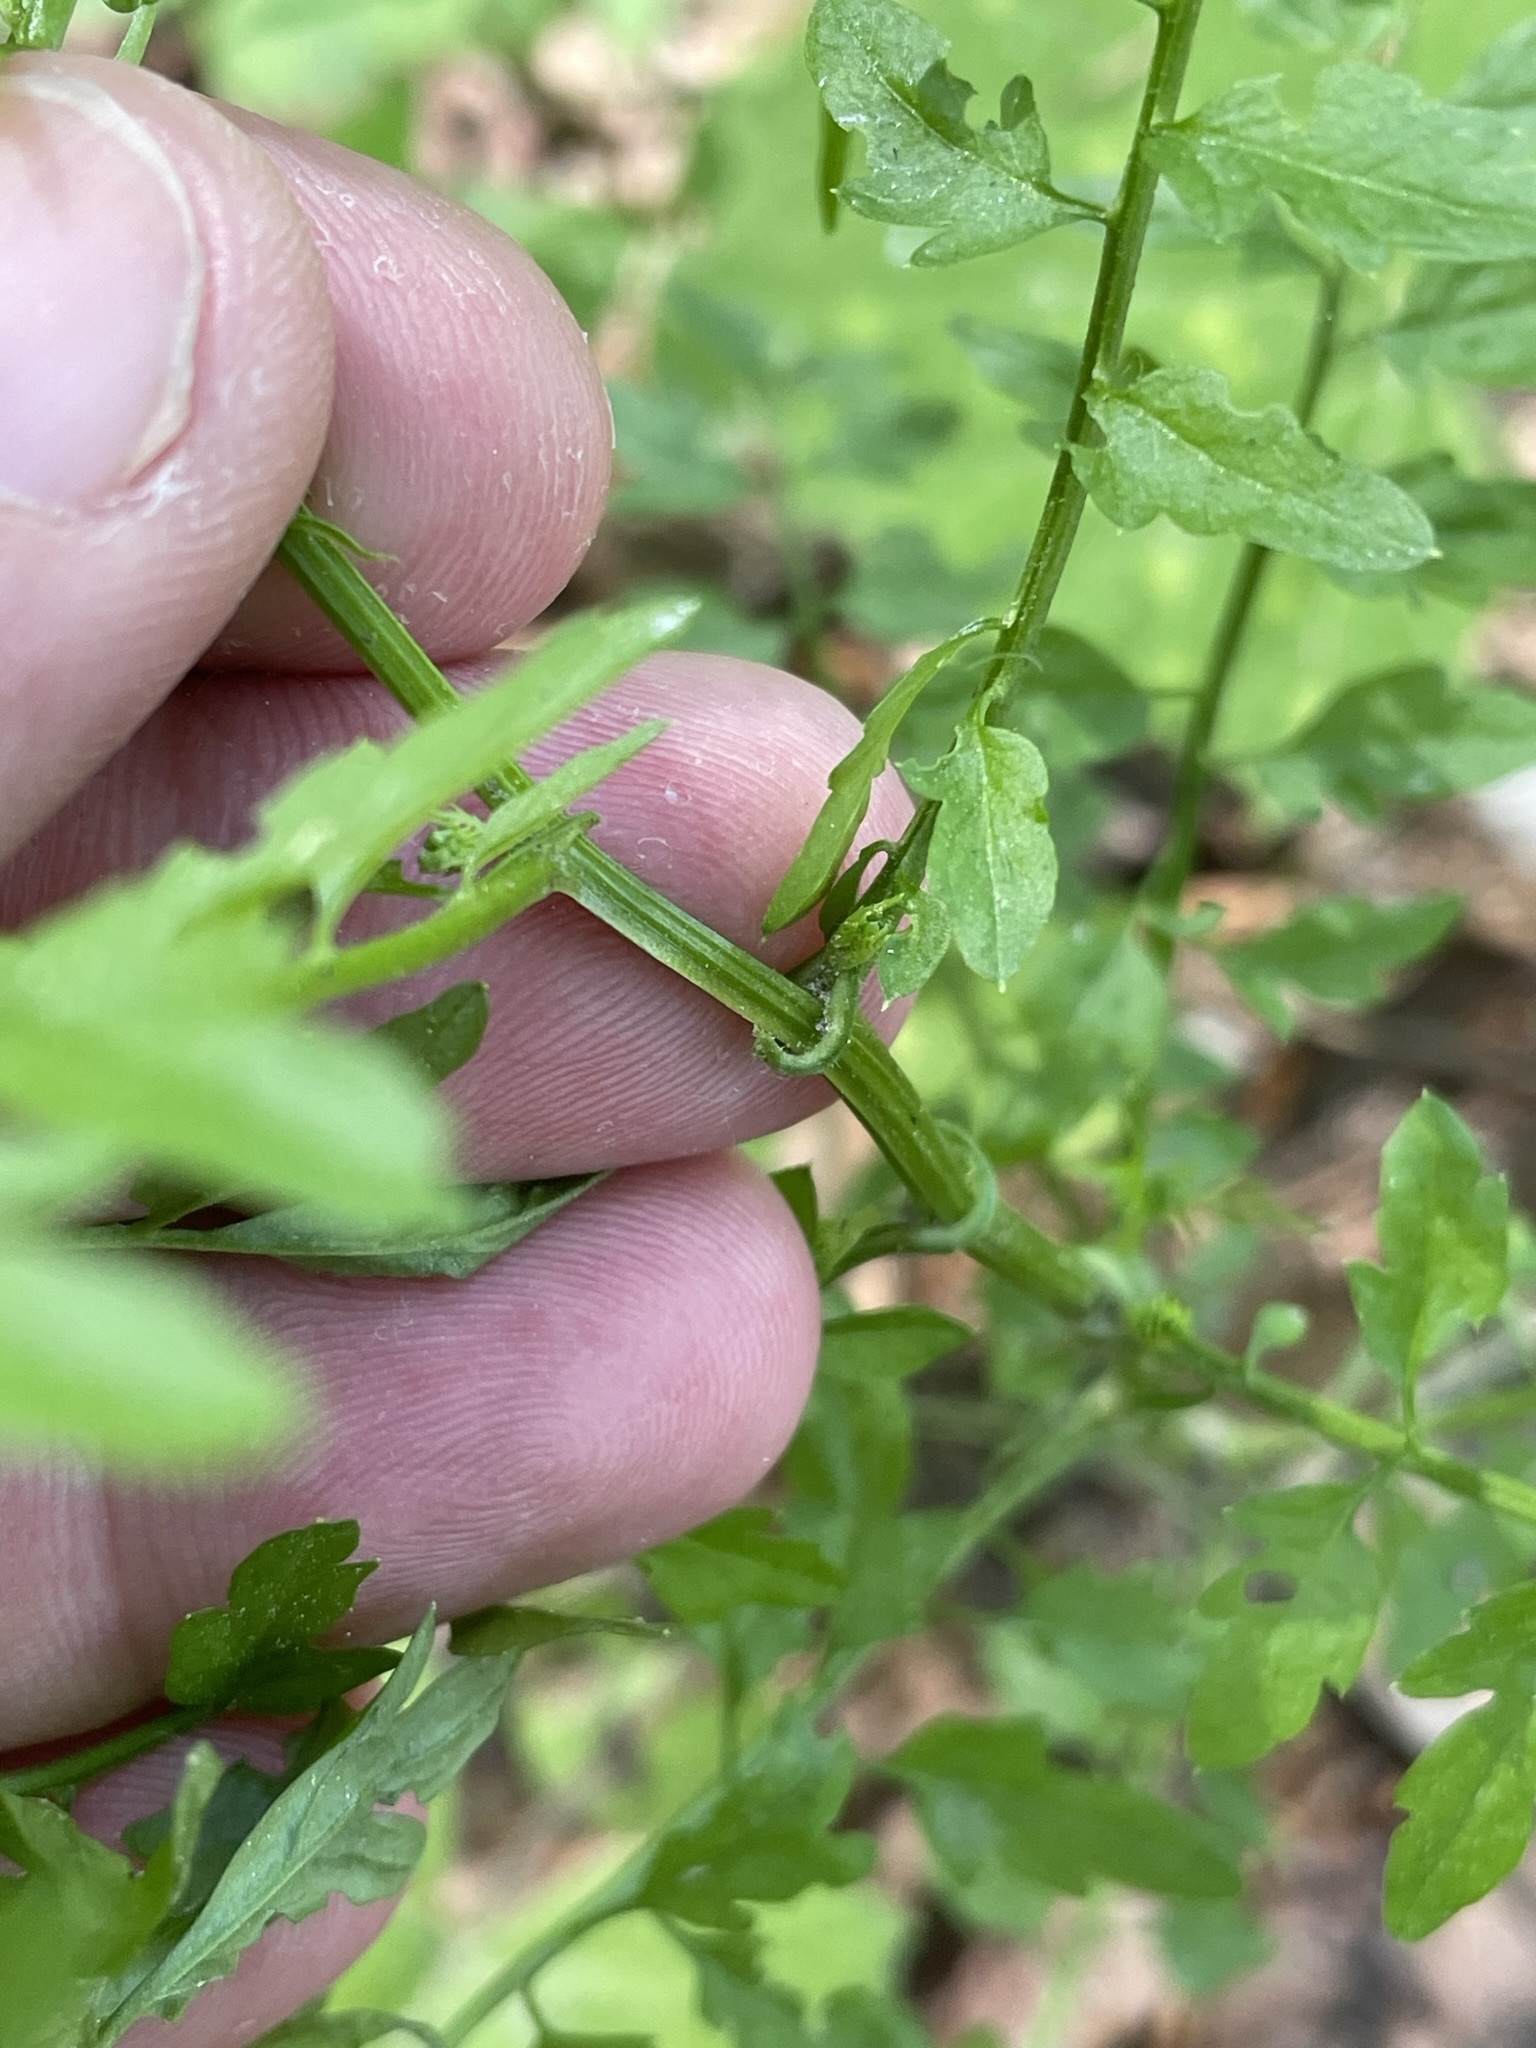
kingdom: Plantae
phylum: Tracheophyta
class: Magnoliopsida
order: Brassicales
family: Brassicaceae
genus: Cardamine
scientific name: Cardamine impatiens
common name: Narrow-leaved bitter-cress
